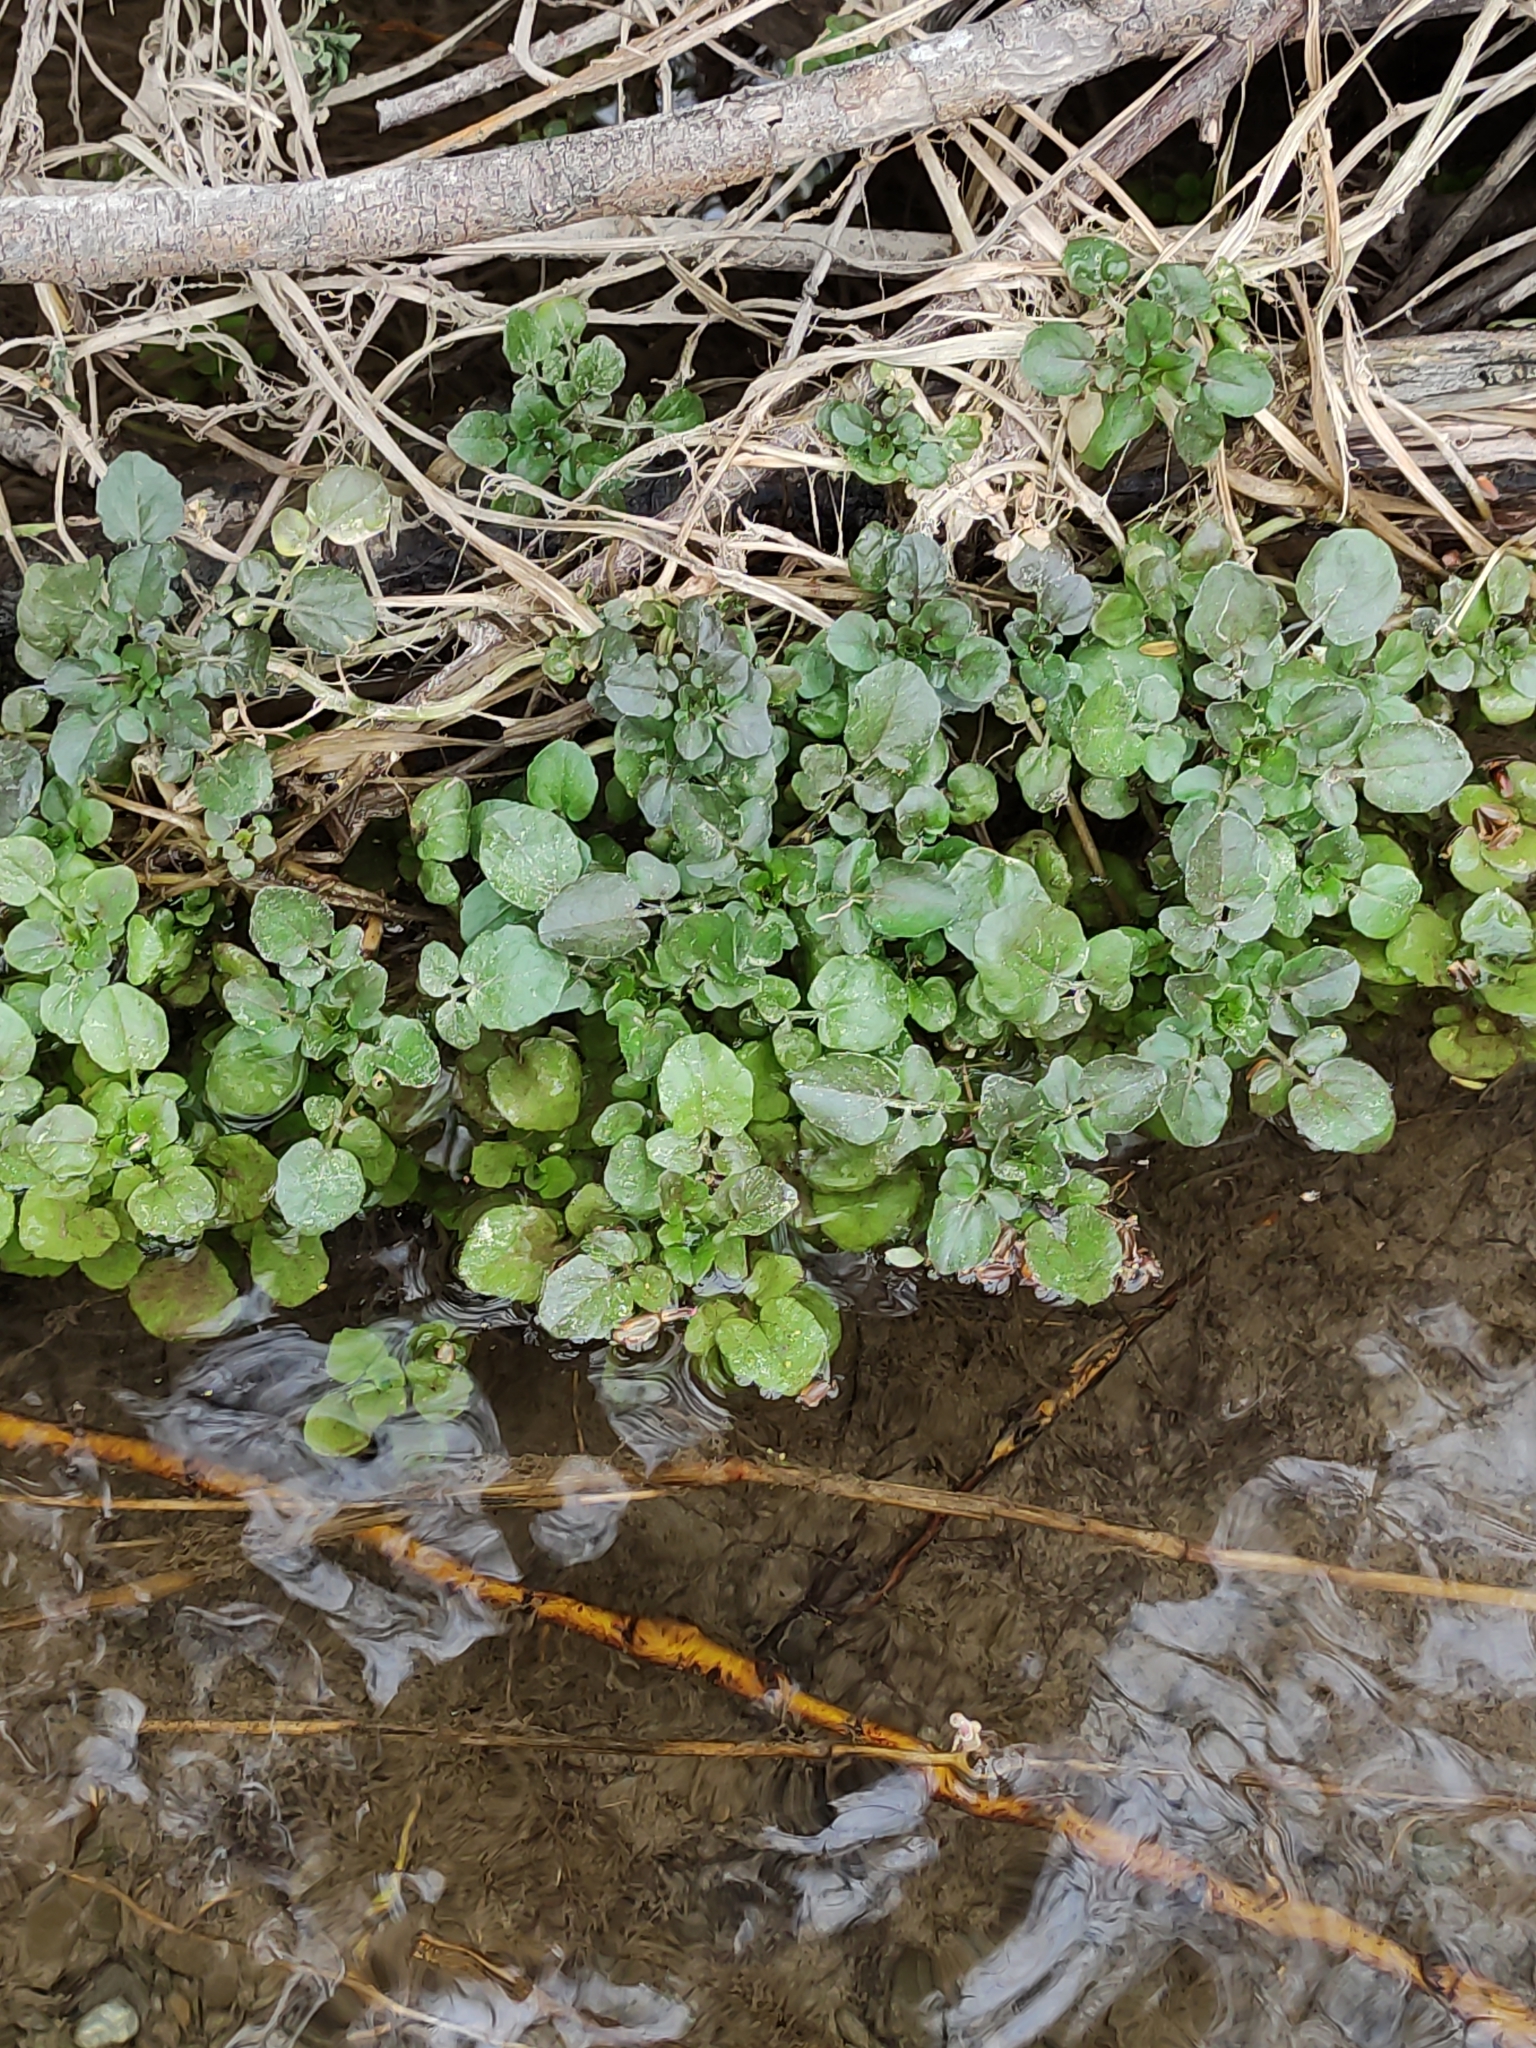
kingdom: Plantae
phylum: Tracheophyta
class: Magnoliopsida
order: Brassicales
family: Brassicaceae
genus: Nasturtium
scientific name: Nasturtium officinale
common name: Watercress
